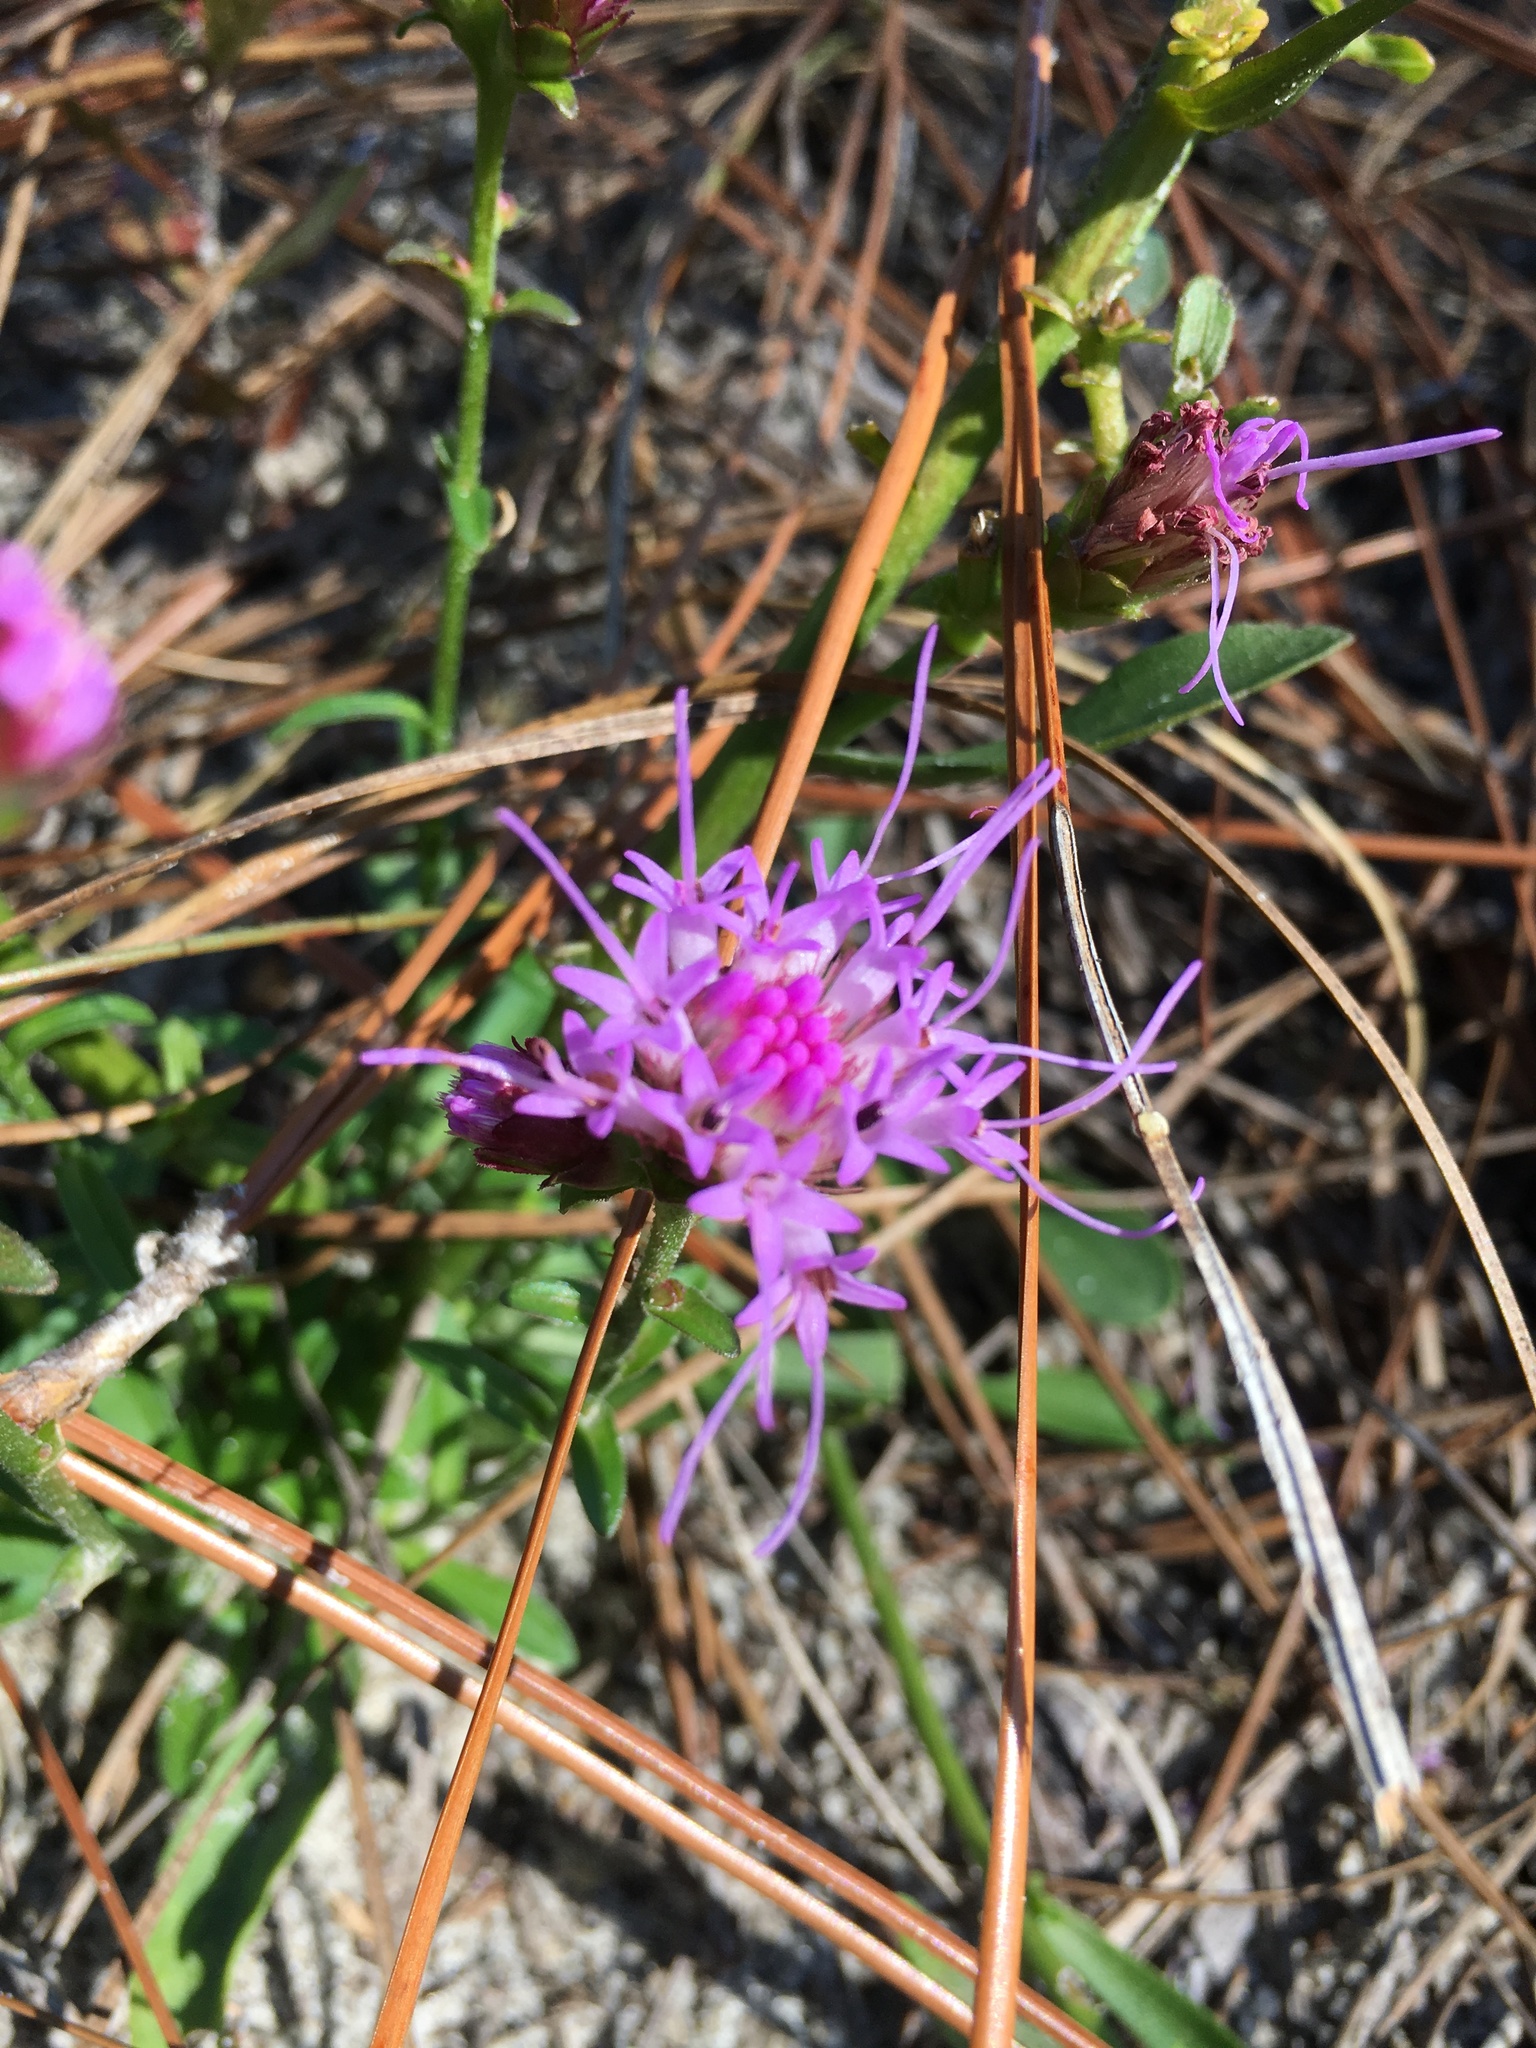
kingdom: Plantae
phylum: Tracheophyta
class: Magnoliopsida
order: Asterales
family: Asteraceae
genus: Carphephorus
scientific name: Carphephorus bellidifolius
